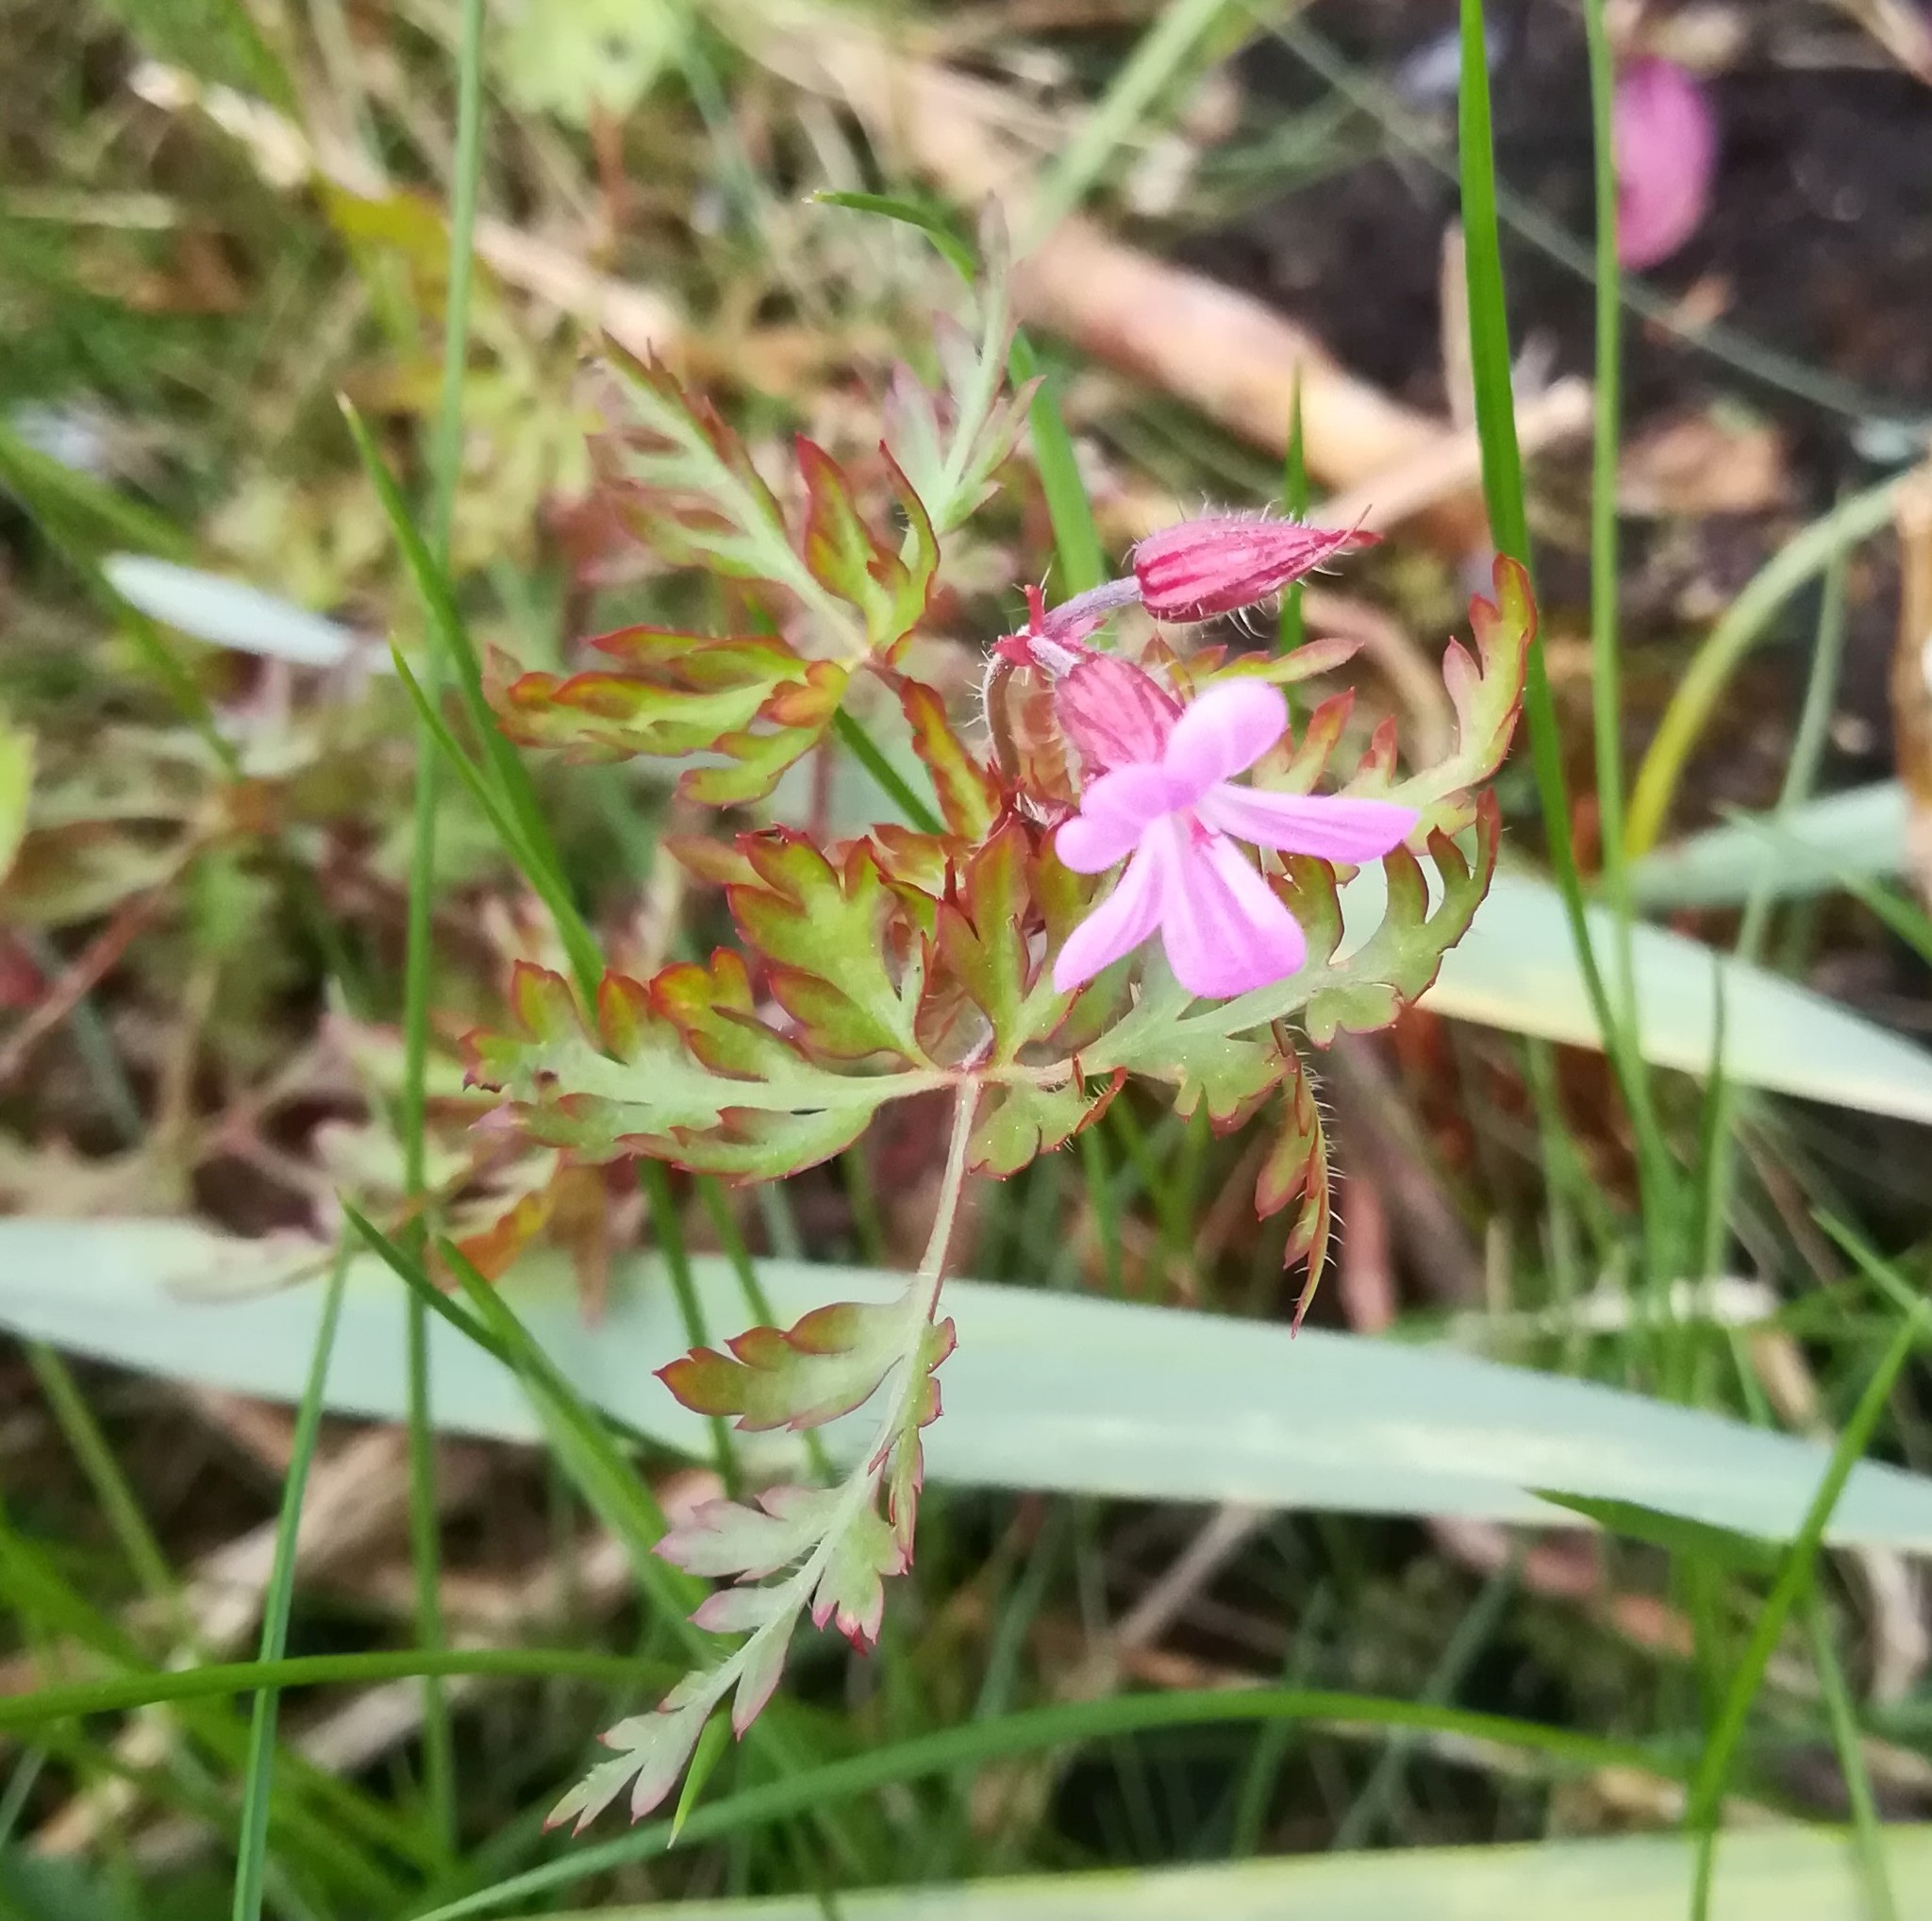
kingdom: Plantae
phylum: Tracheophyta
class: Magnoliopsida
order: Geraniales
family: Geraniaceae
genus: Geranium
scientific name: Geranium robertianum
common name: Herb-robert
